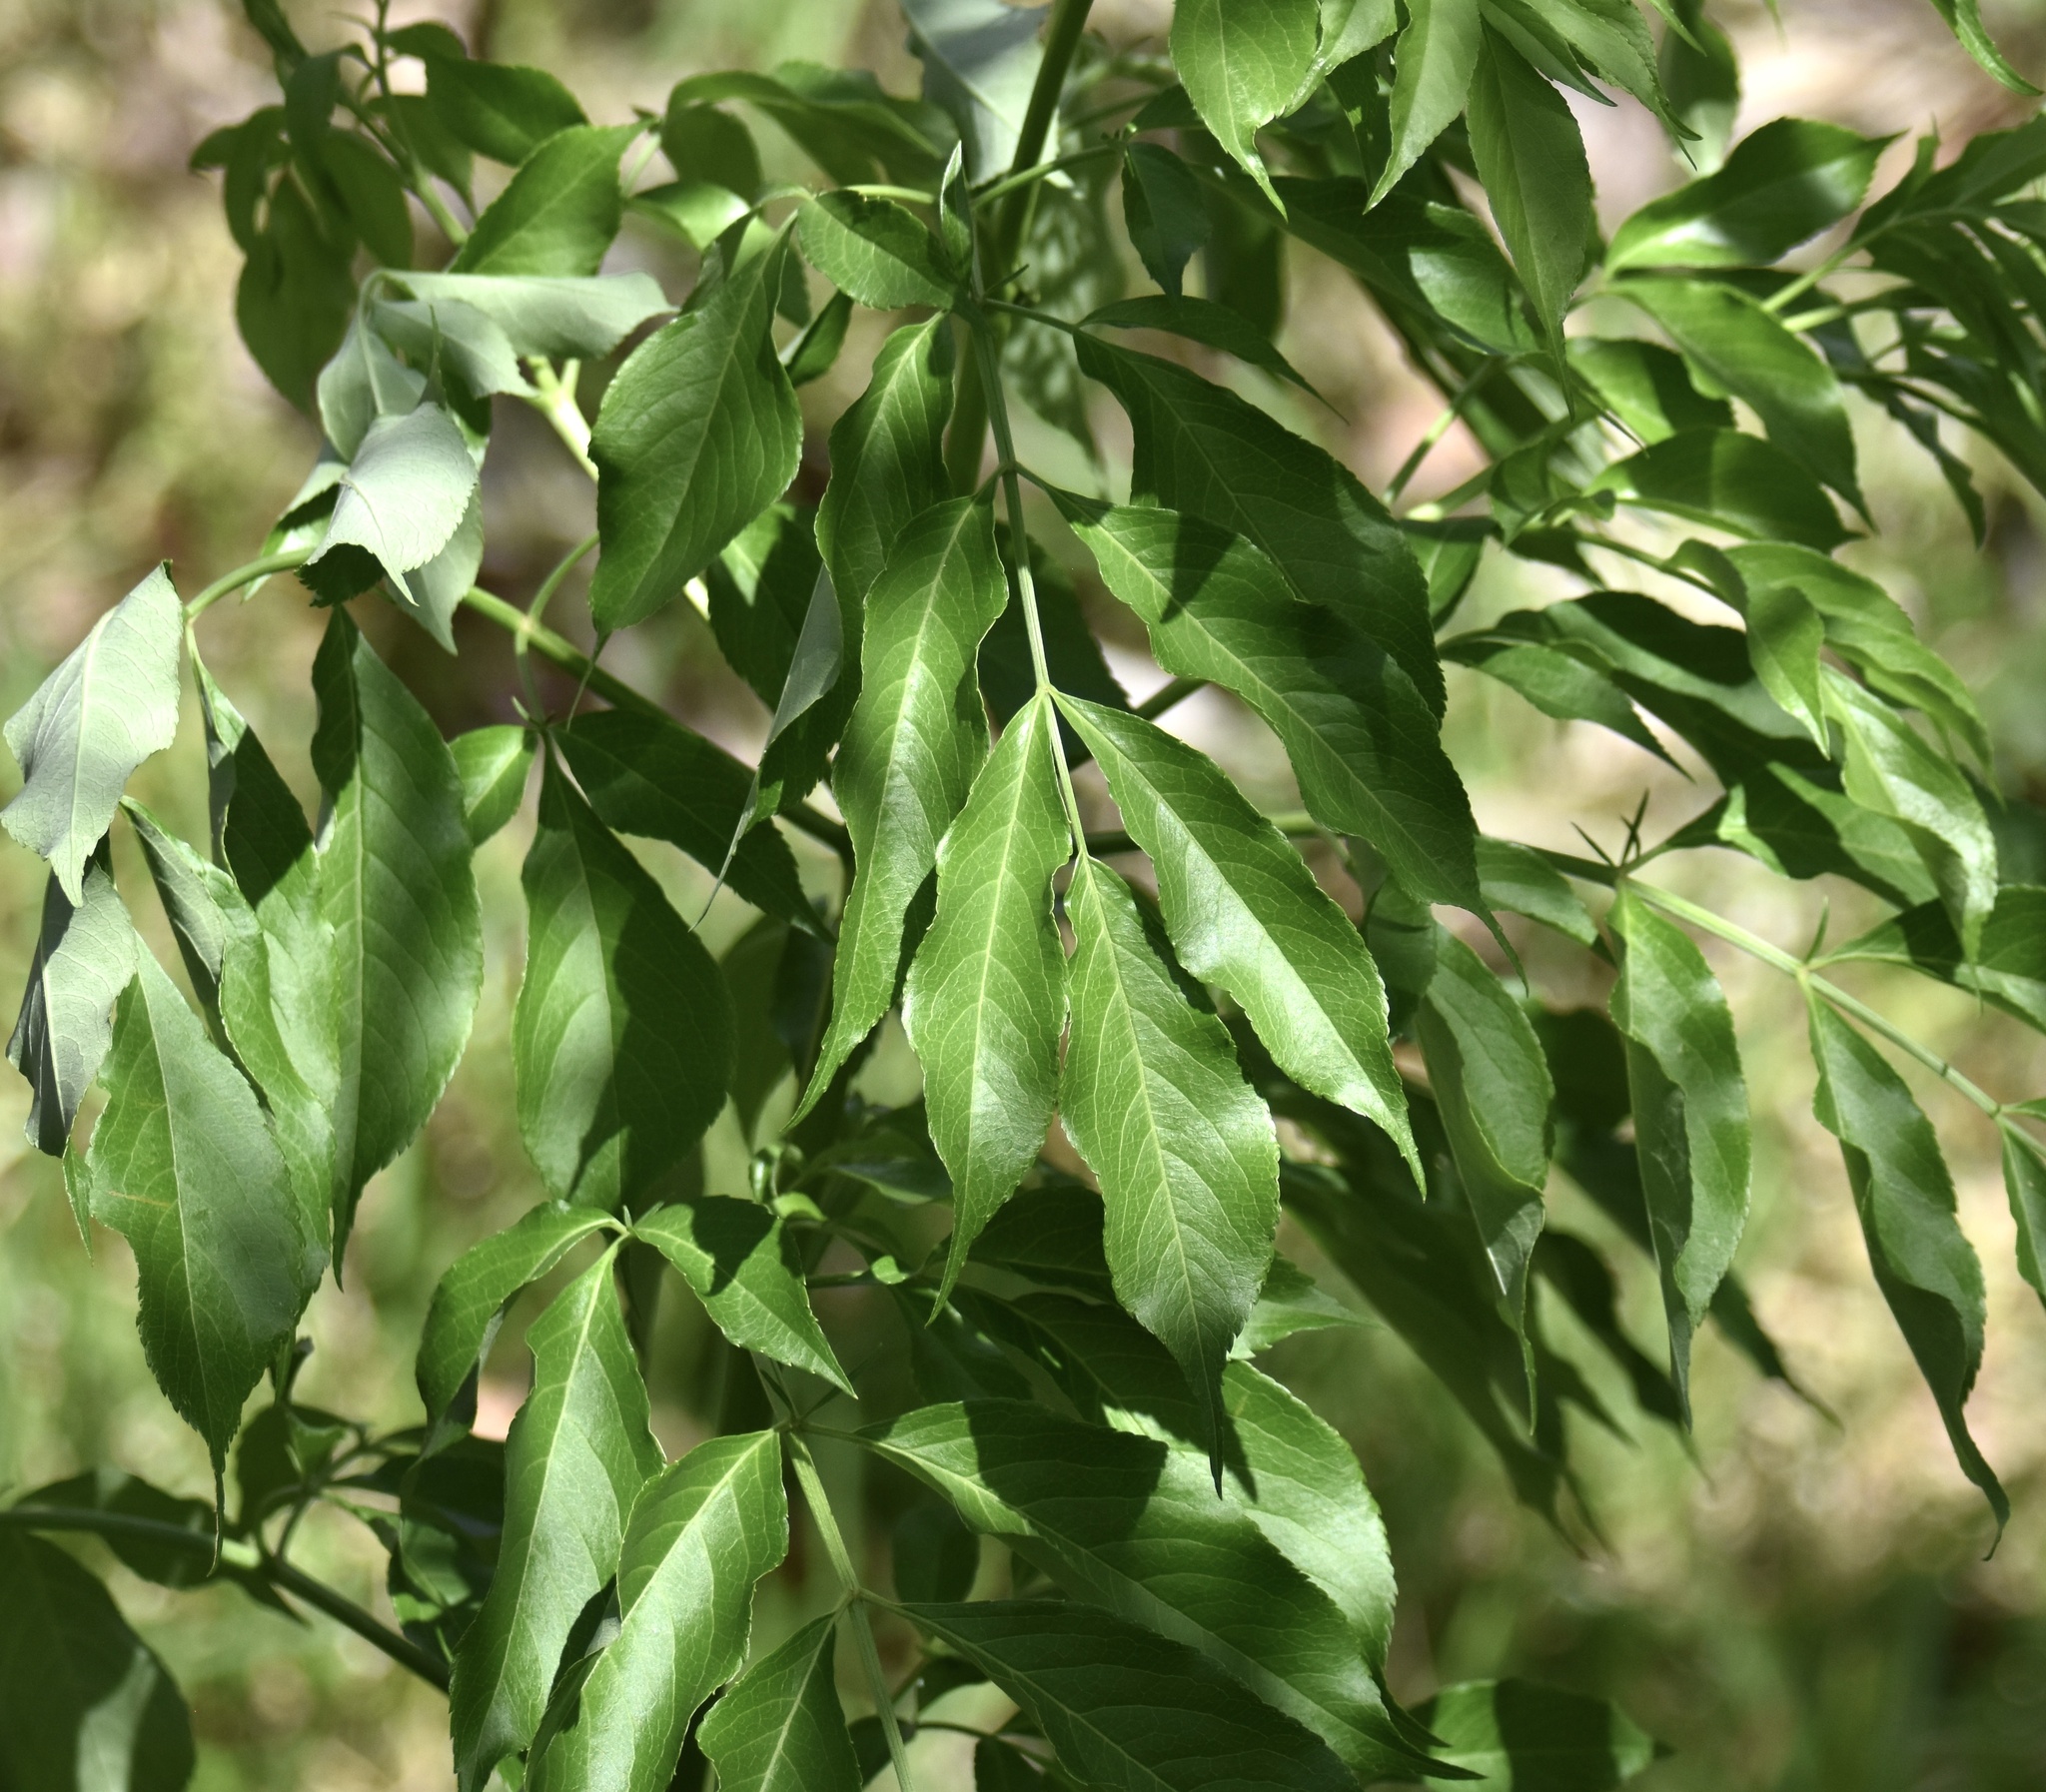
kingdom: Plantae
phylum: Tracheophyta
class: Magnoliopsida
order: Dipsacales
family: Viburnaceae
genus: Sambucus
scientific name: Sambucus canadensis
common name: American elder
